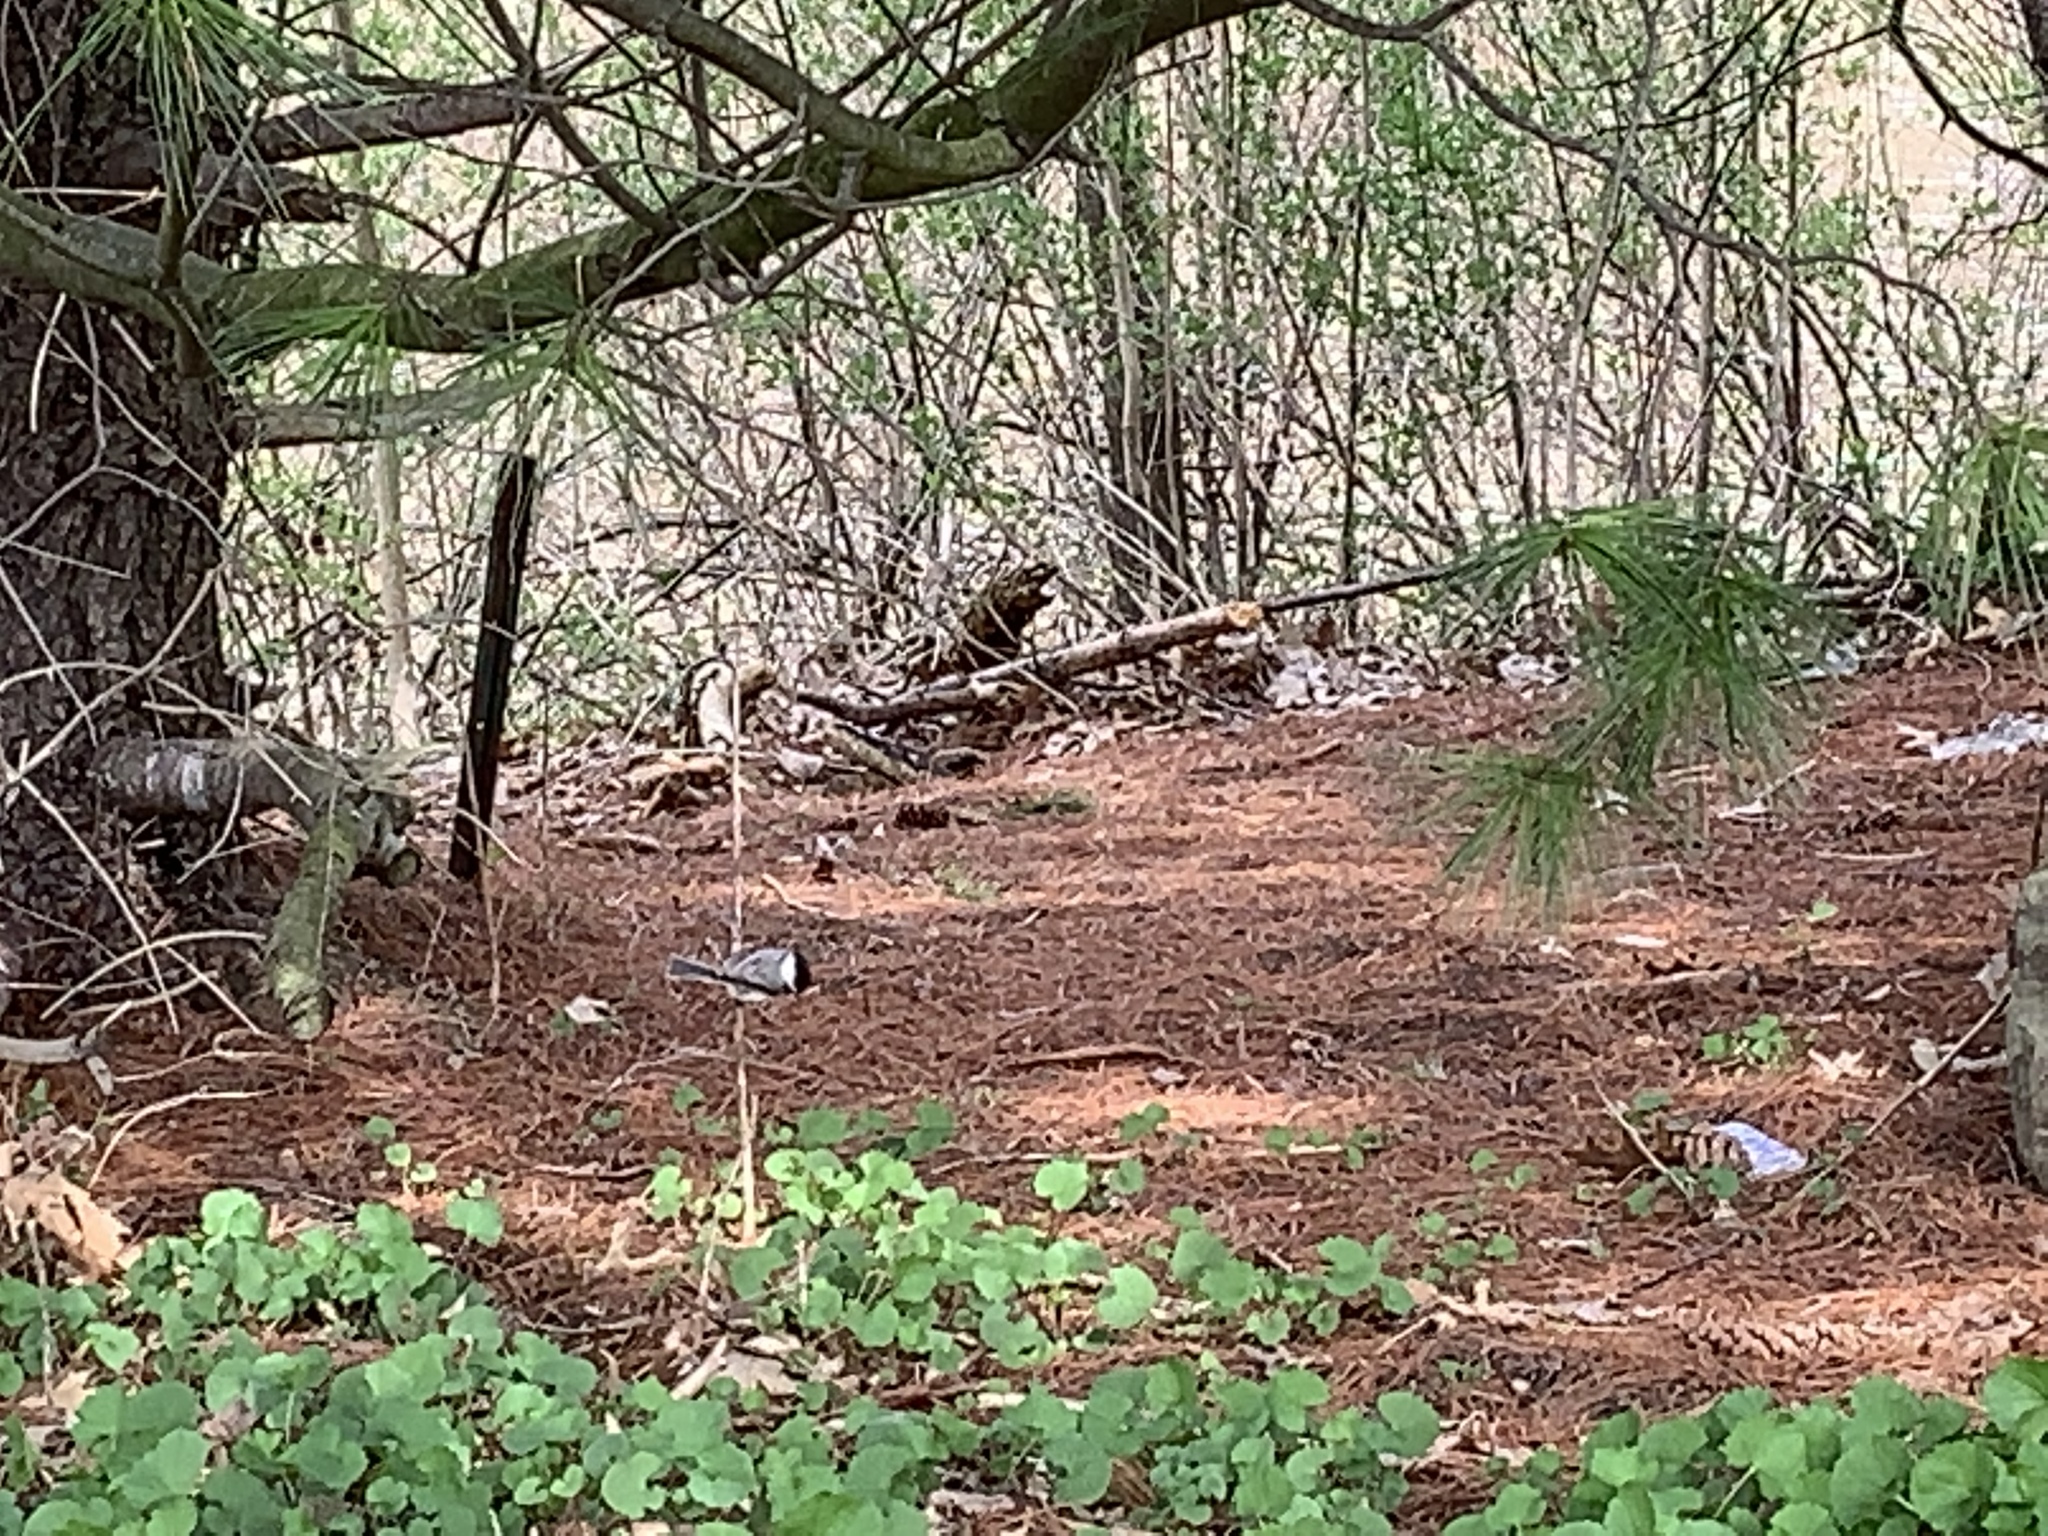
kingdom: Animalia
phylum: Chordata
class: Aves
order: Passeriformes
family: Paridae
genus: Poecile
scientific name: Poecile
